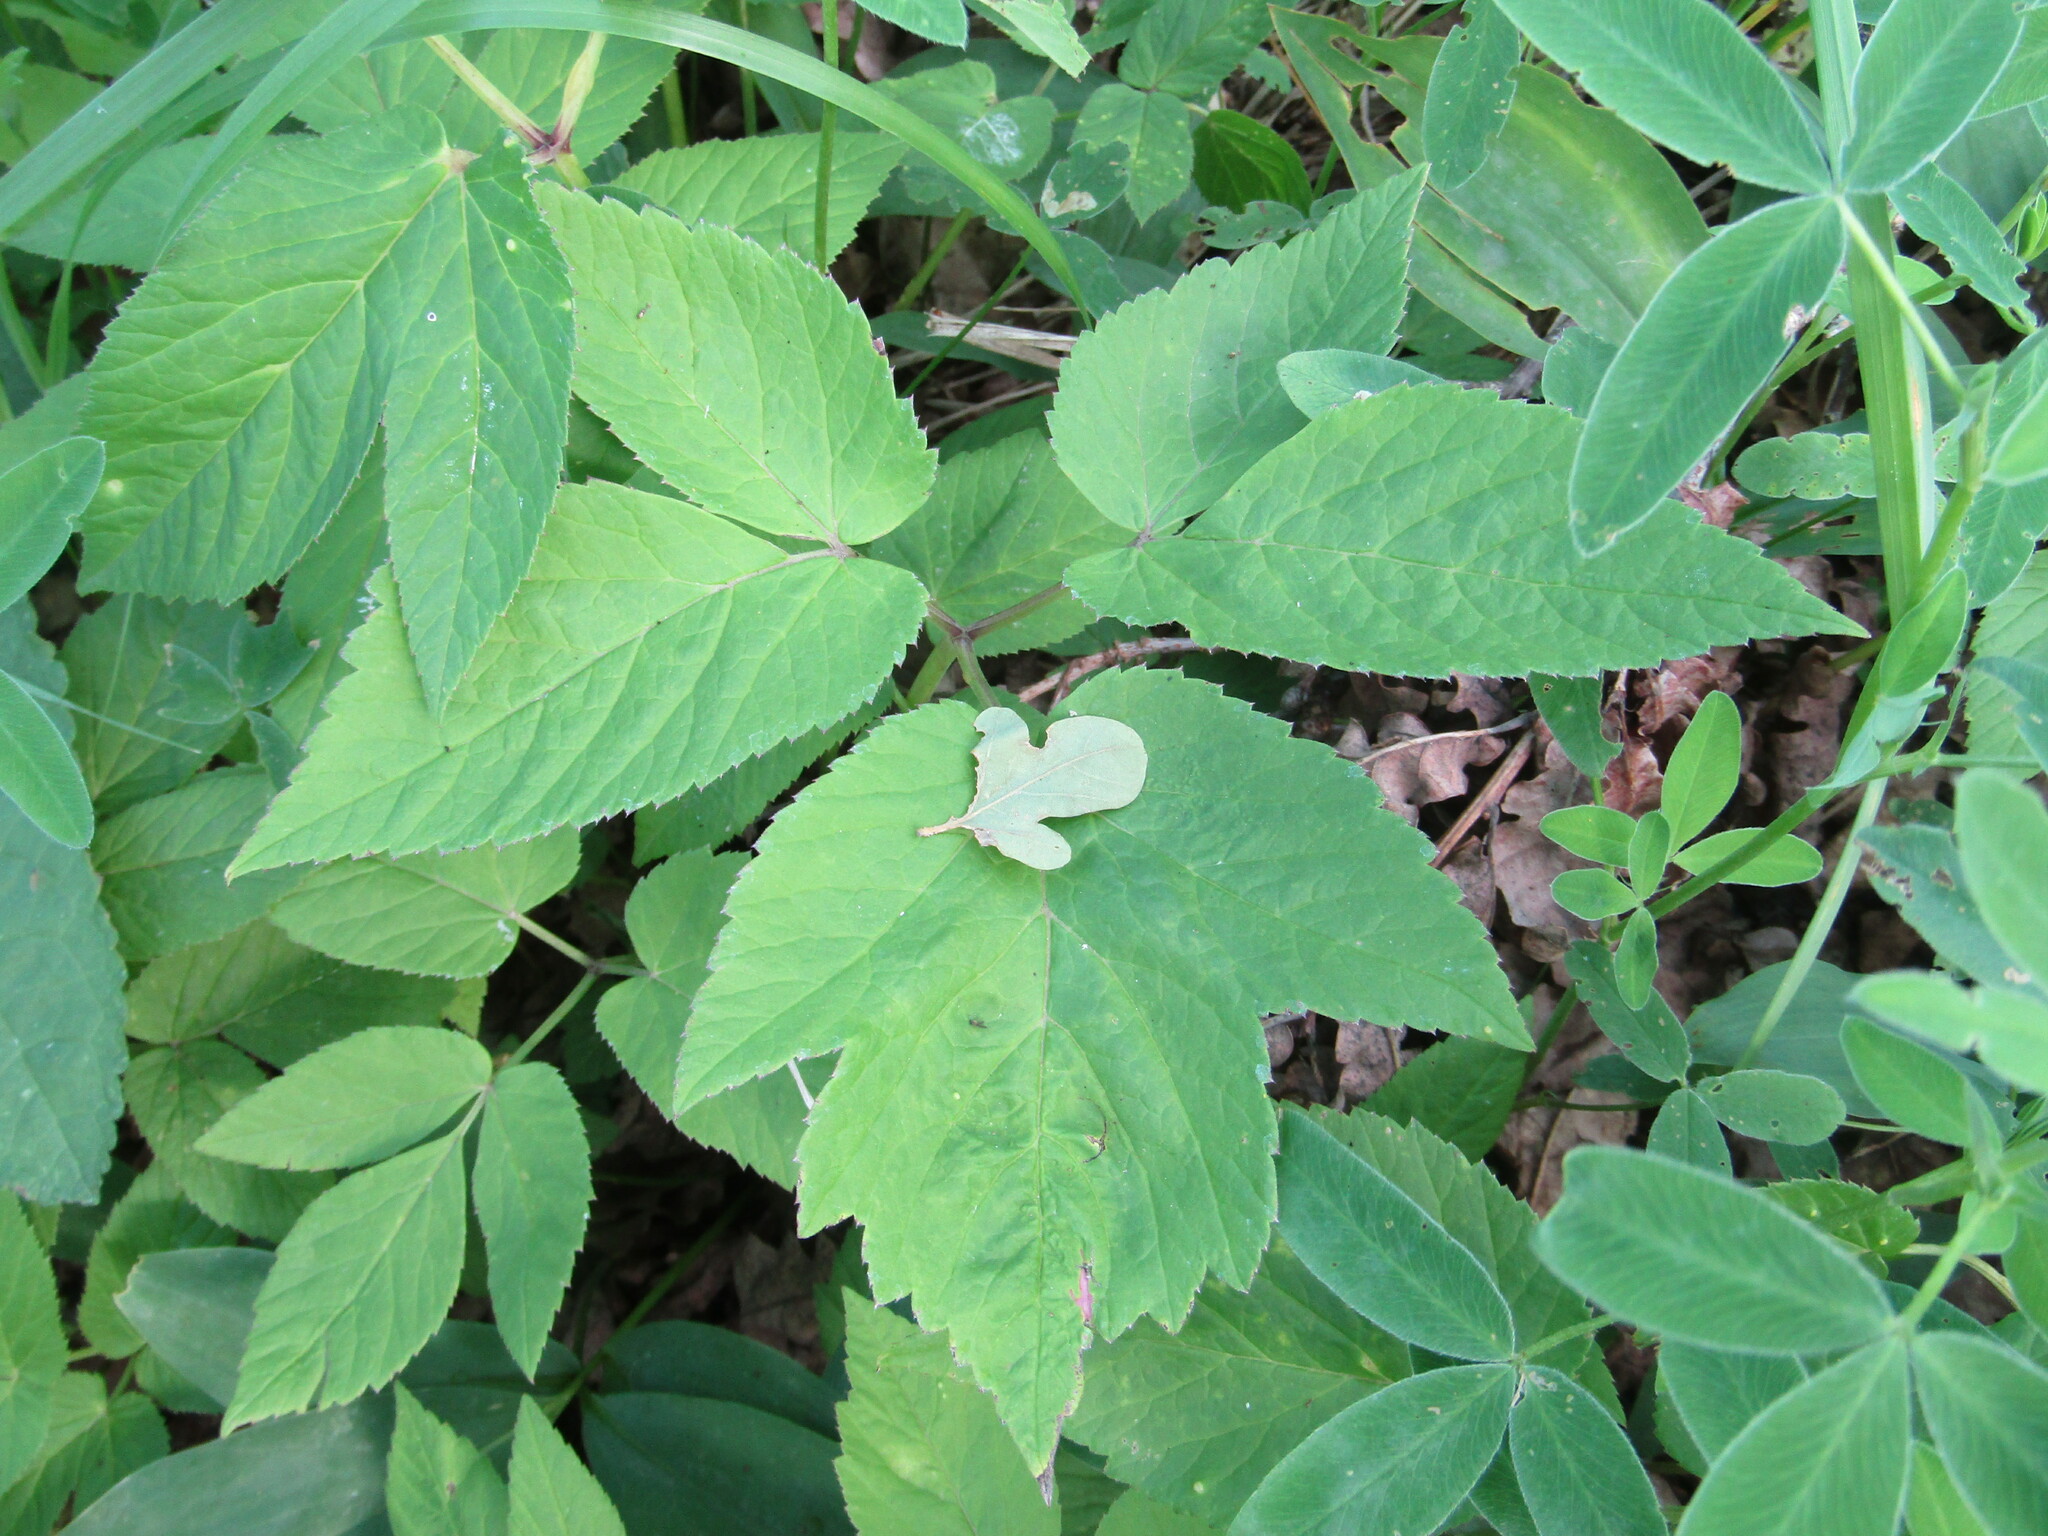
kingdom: Plantae
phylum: Tracheophyta
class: Magnoliopsida
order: Apiales
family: Apiaceae
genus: Aegopodium
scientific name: Aegopodium podagraria
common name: Ground-elder
